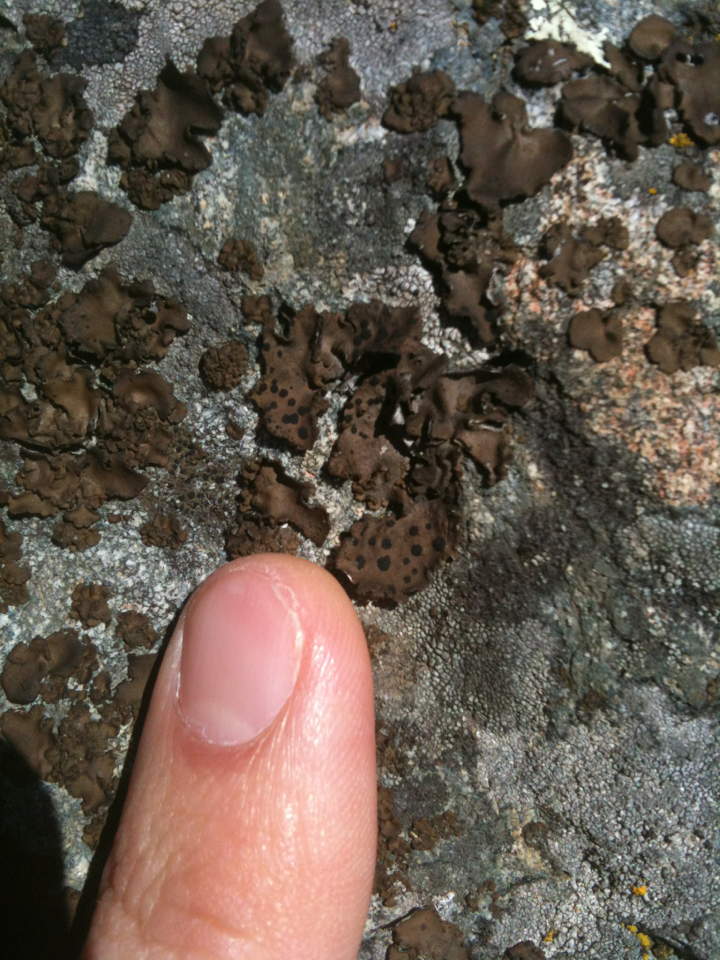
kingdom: Fungi
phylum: Ascomycota
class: Lecanoromycetes
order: Umbilicariales
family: Umbilicariaceae
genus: Umbilicaria
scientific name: Umbilicaria phaea
